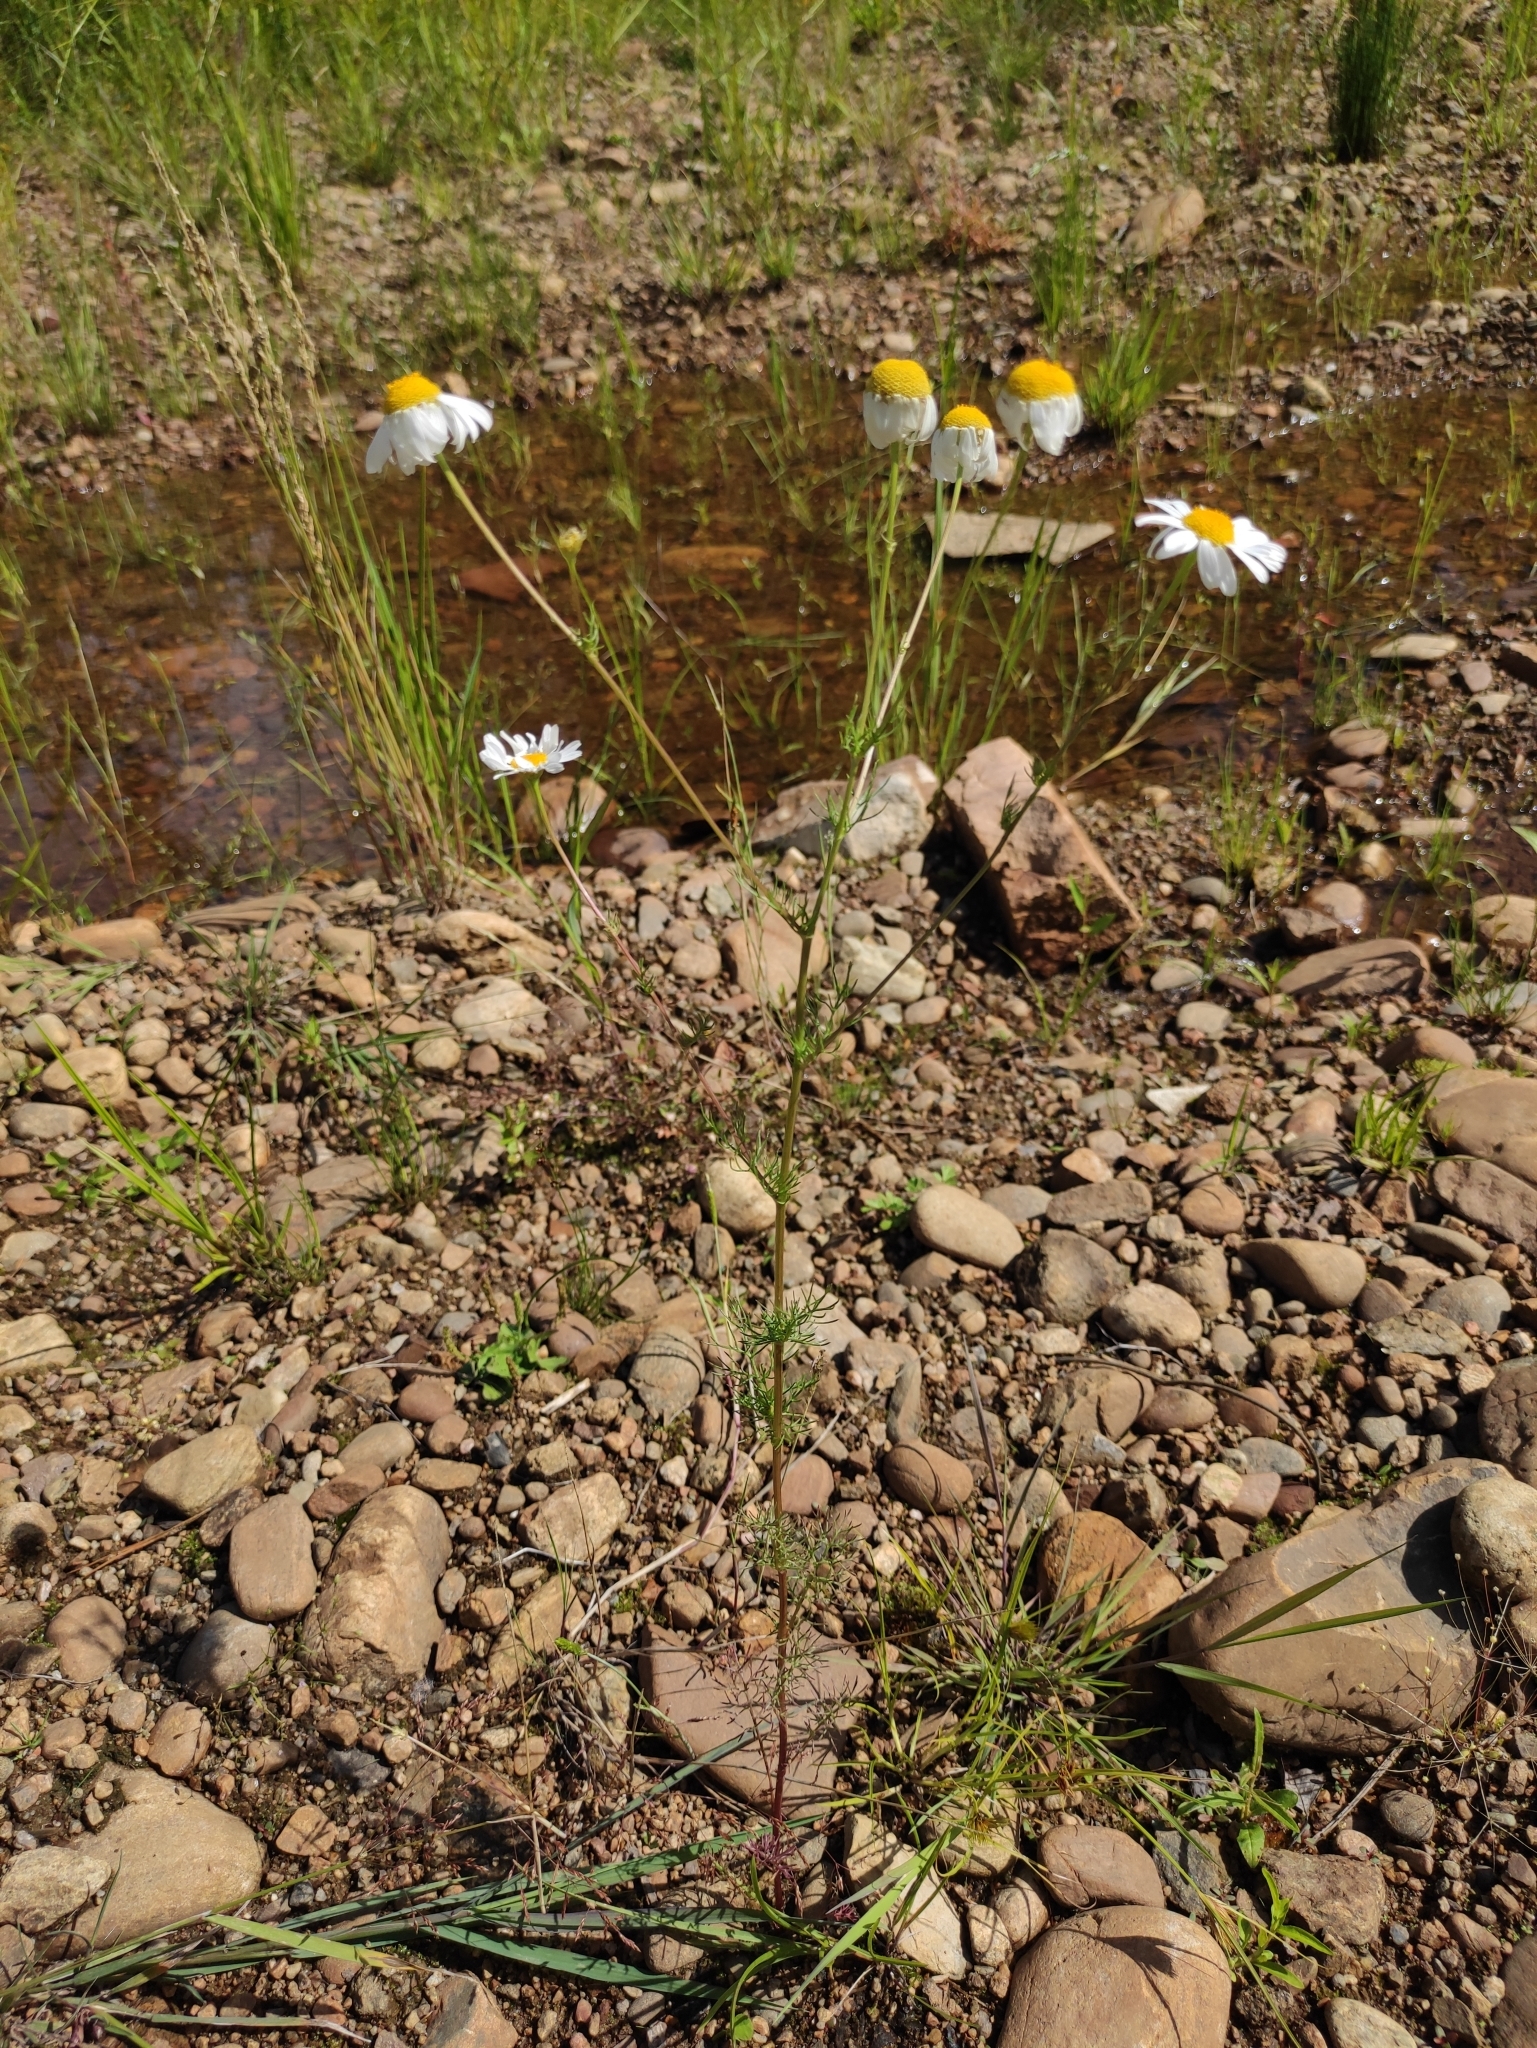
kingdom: Plantae
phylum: Tracheophyta
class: Magnoliopsida
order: Asterales
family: Asteraceae
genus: Tripleurospermum
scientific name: Tripleurospermum inodorum
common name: Scentless mayweed
